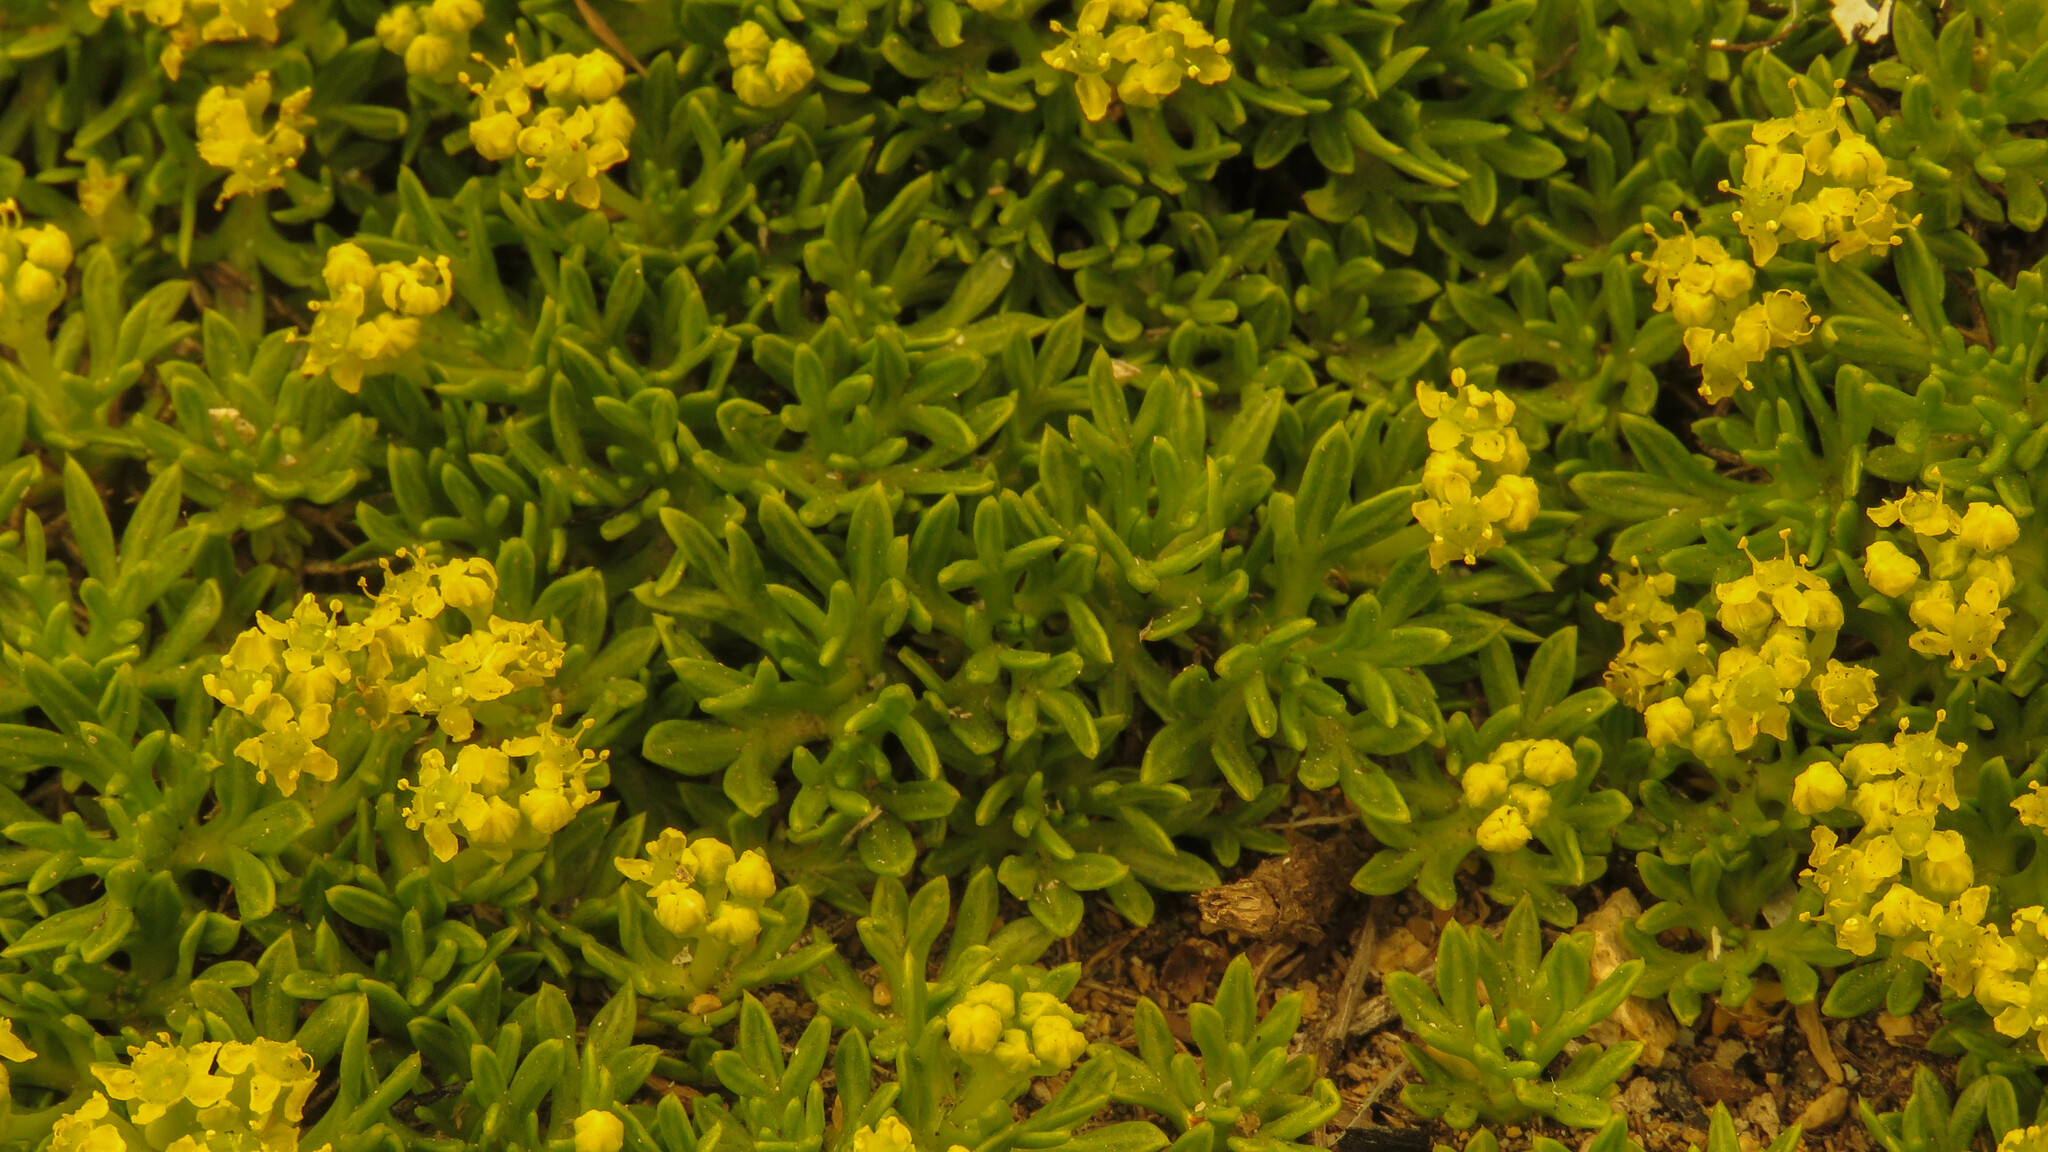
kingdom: Plantae
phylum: Tracheophyta
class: Magnoliopsida
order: Apiales
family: Apiaceae
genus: Azorella
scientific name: Azorella nivalis
